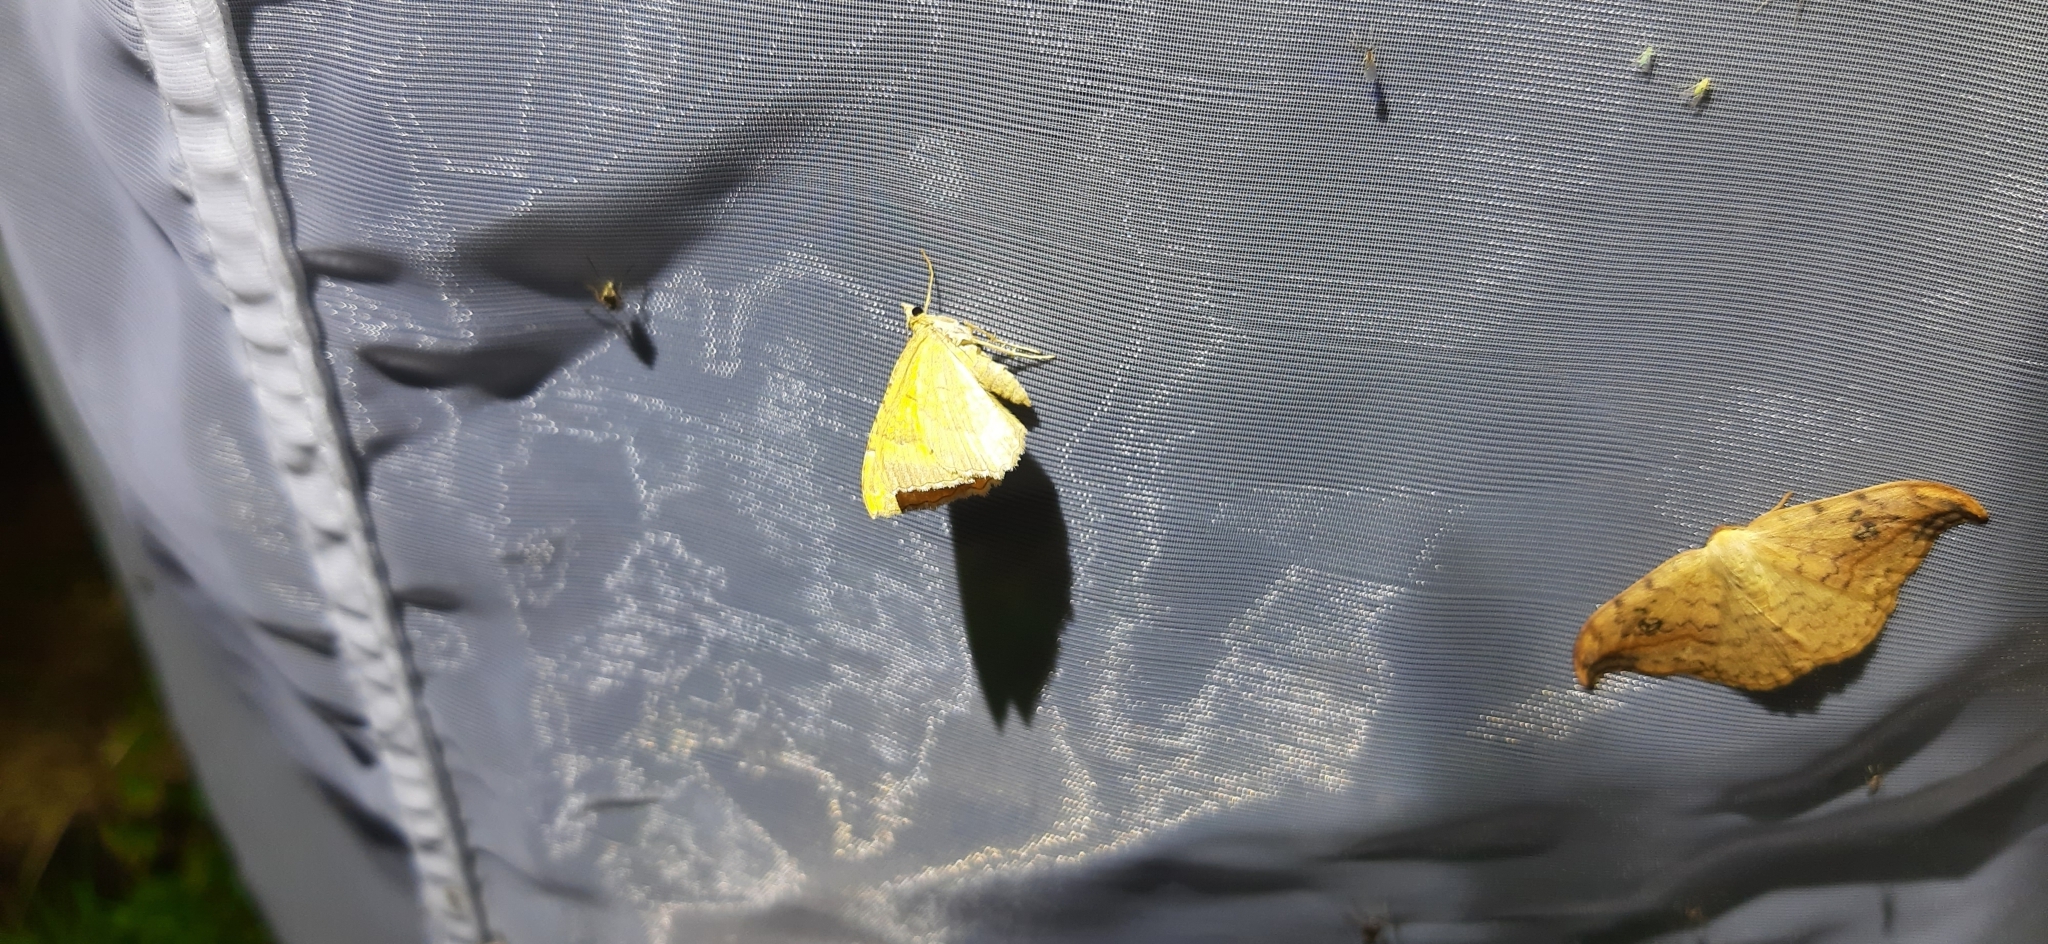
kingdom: Animalia
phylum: Arthropoda
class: Insecta
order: Lepidoptera
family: Geometridae
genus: Camptogramma
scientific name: Camptogramma bilineata
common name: Yellow shell
